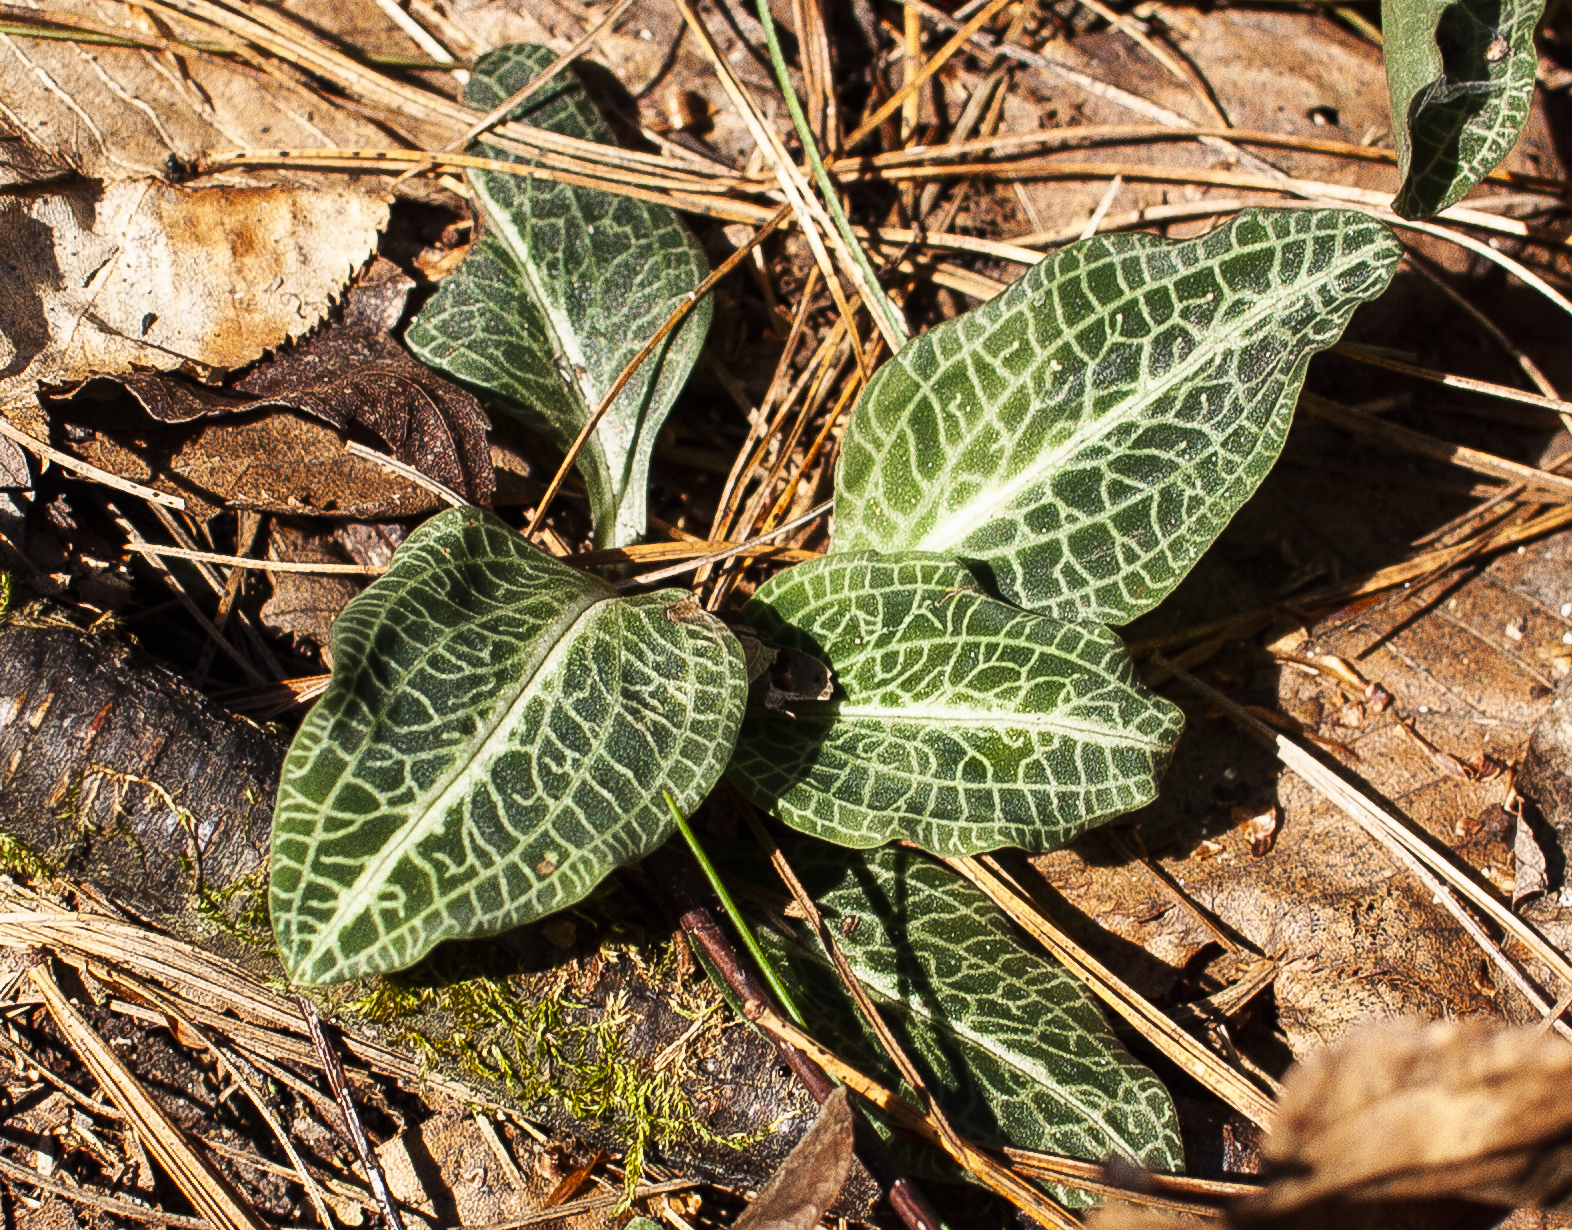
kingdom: Plantae
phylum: Tracheophyta
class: Liliopsida
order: Asparagales
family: Orchidaceae
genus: Goodyera
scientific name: Goodyera pubescens
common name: Downy rattlesnake-plantain
